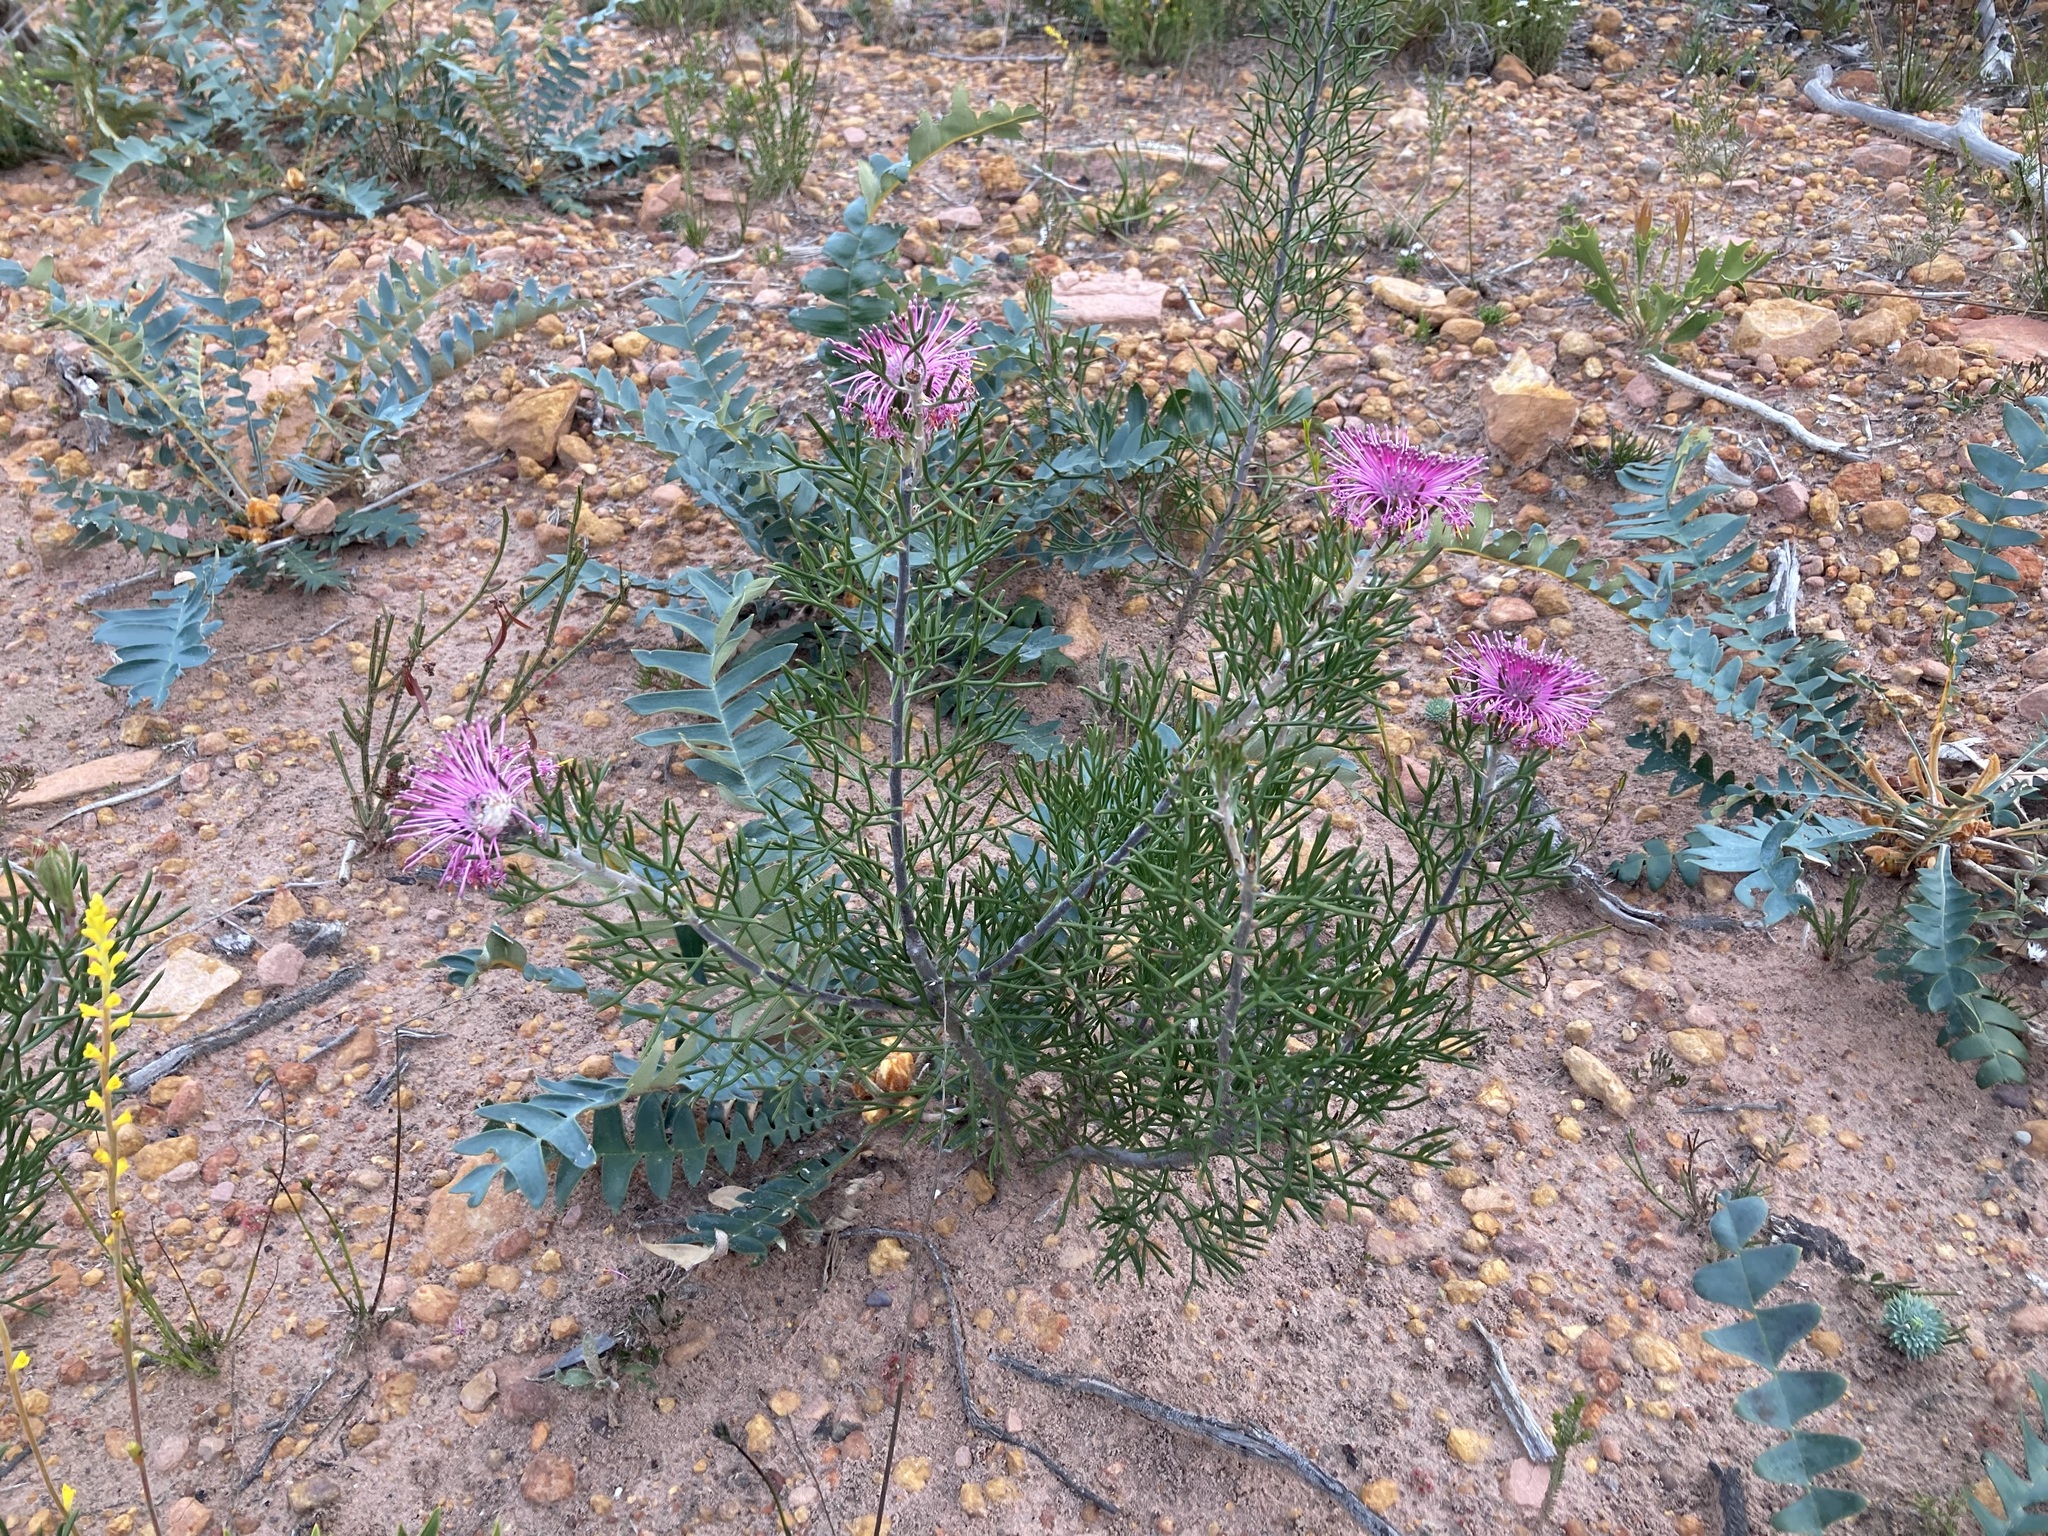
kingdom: Plantae
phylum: Tracheophyta
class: Magnoliopsida
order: Proteales
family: Proteaceae
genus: Isopogon
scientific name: Isopogon formosus
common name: Rose-coneflower
